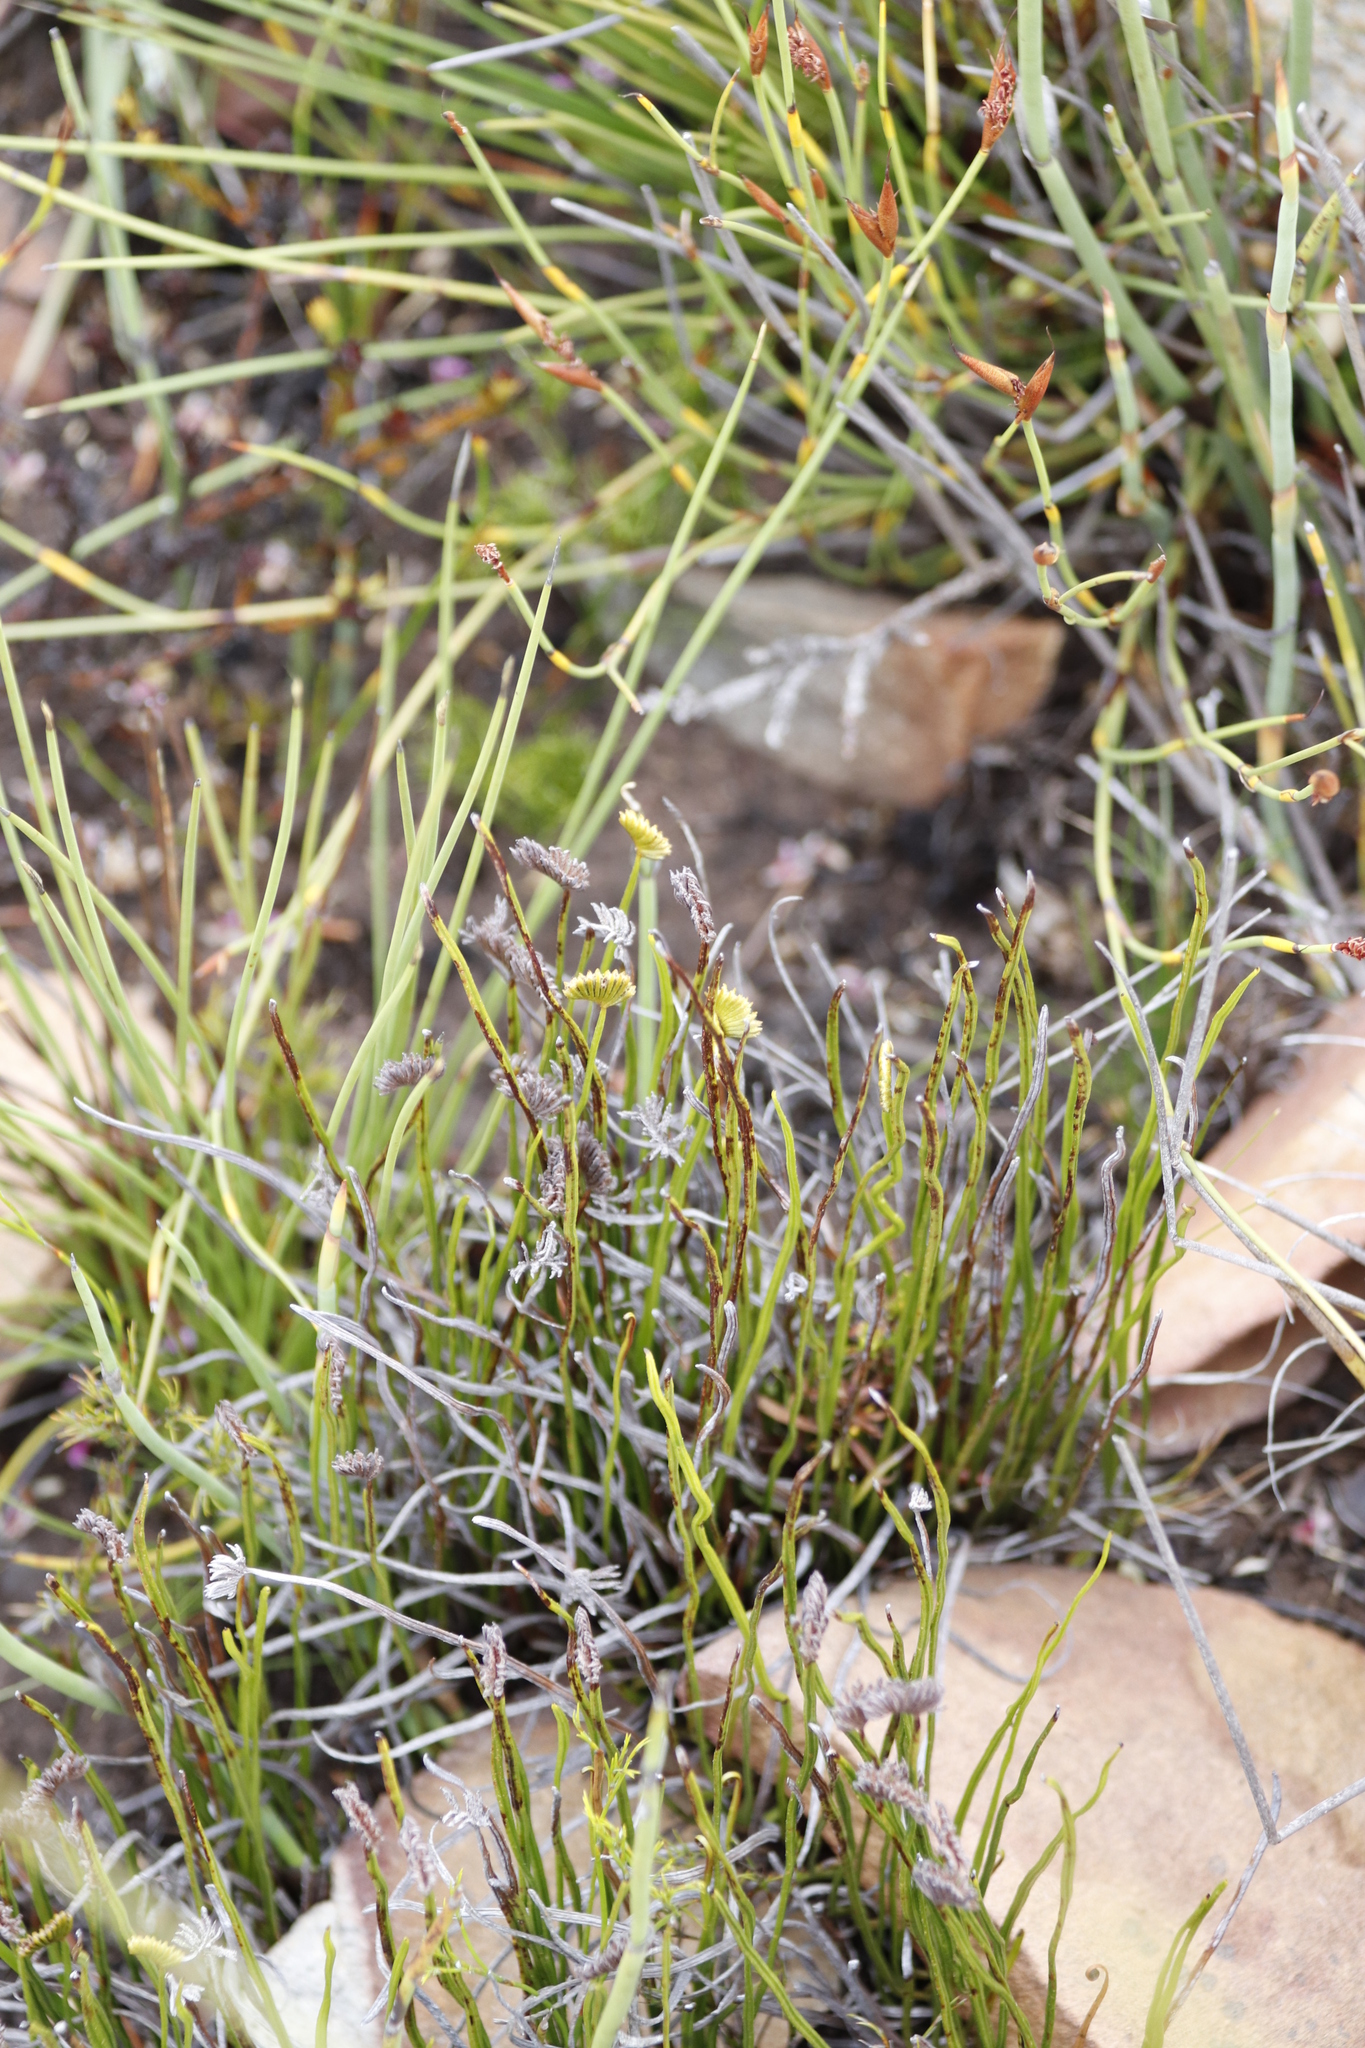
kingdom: Plantae
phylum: Tracheophyta
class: Polypodiopsida
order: Schizaeales
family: Schizaeaceae
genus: Schizaea
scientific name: Schizaea pectinata
